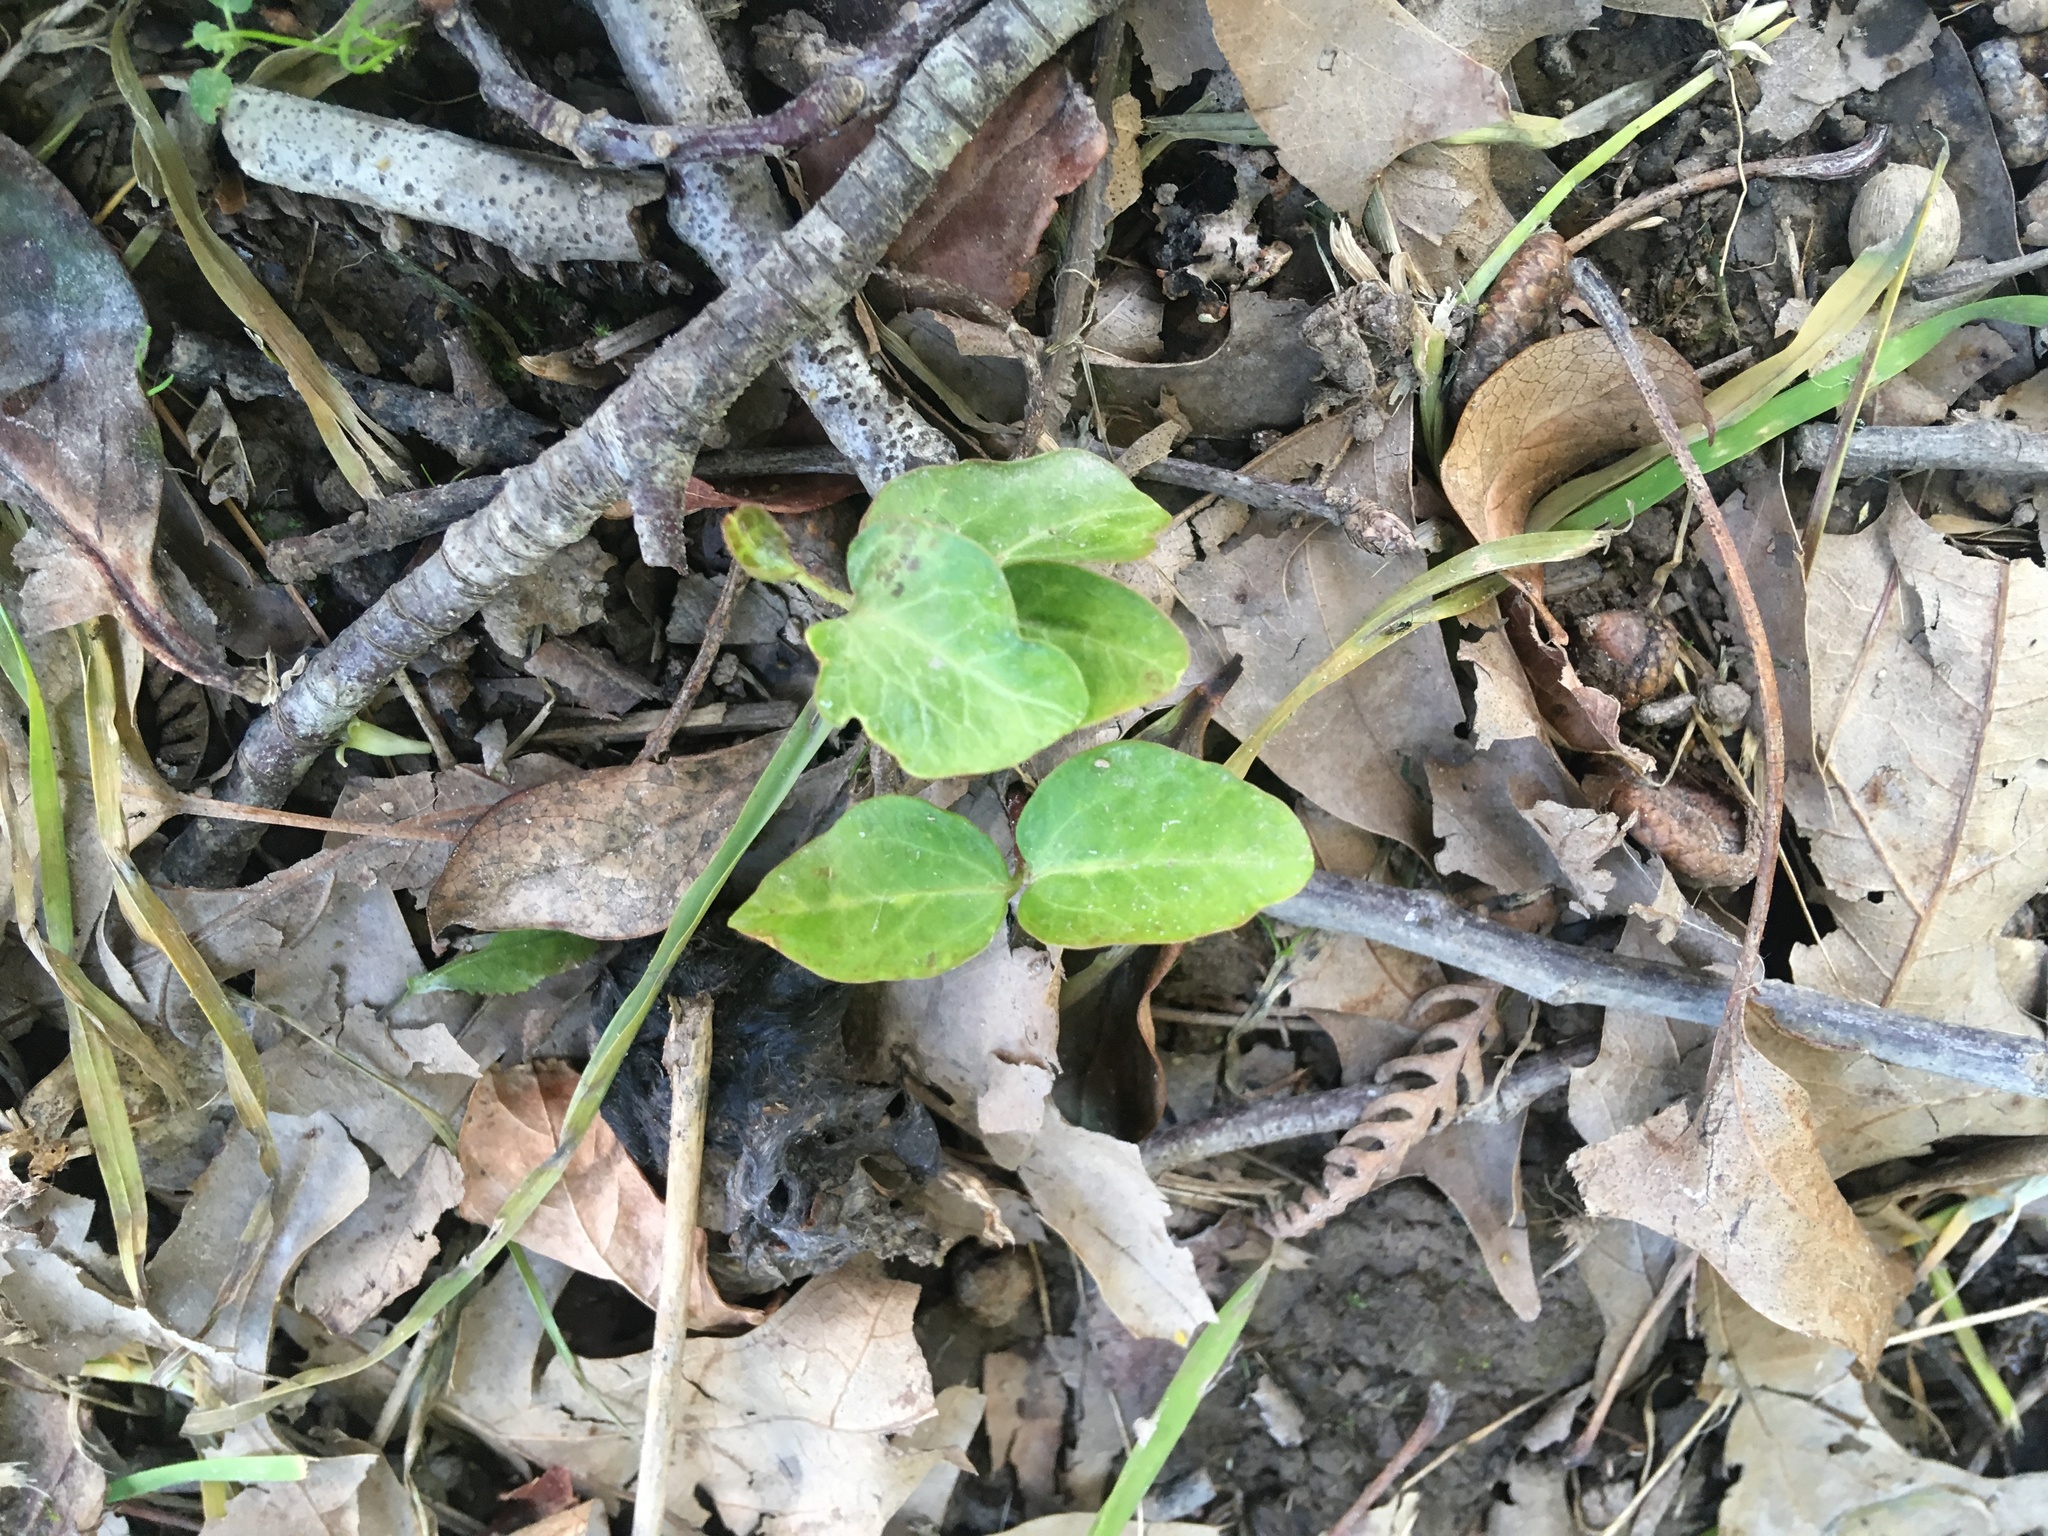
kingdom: Plantae
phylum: Tracheophyta
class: Magnoliopsida
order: Apiales
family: Araliaceae
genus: Hedera
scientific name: Hedera helix
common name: Ivy
